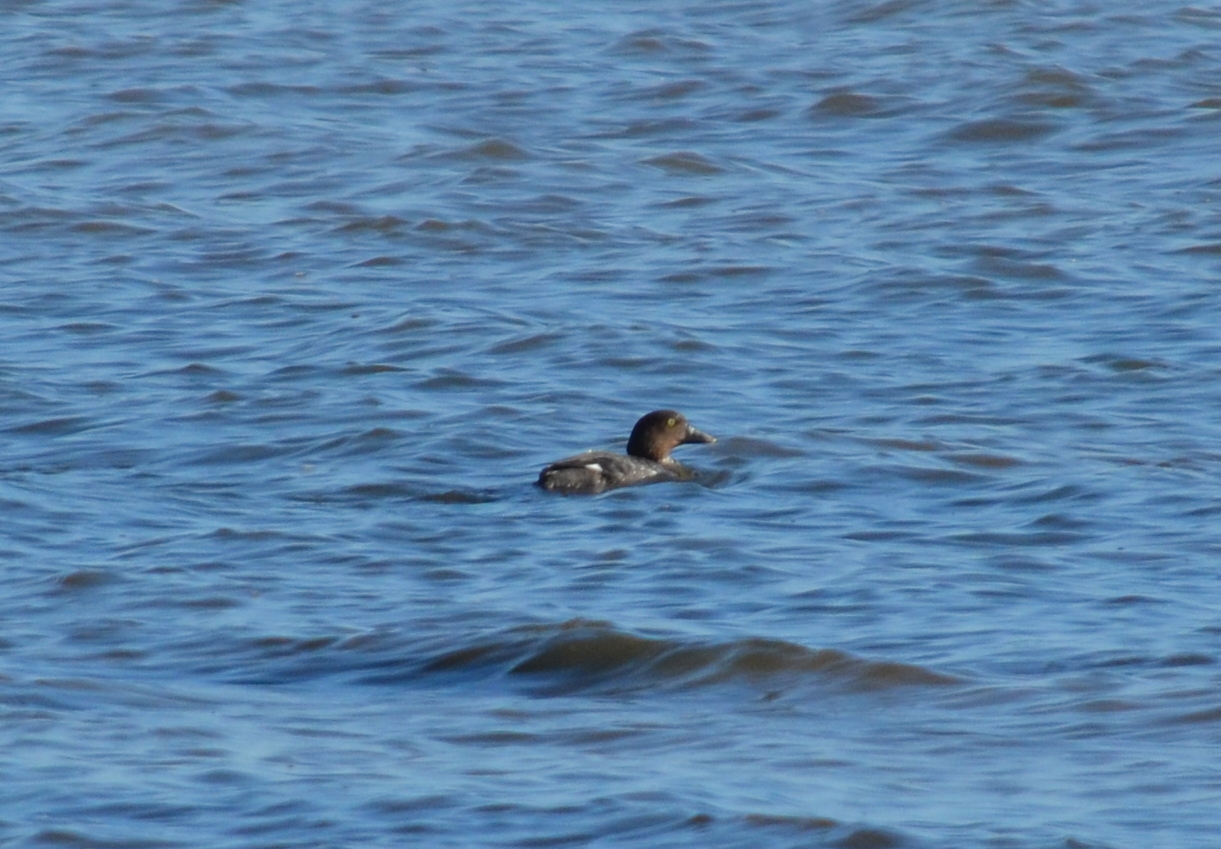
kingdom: Animalia
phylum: Chordata
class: Aves
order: Anseriformes
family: Anatidae
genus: Bucephala
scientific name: Bucephala clangula
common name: Common goldeneye
